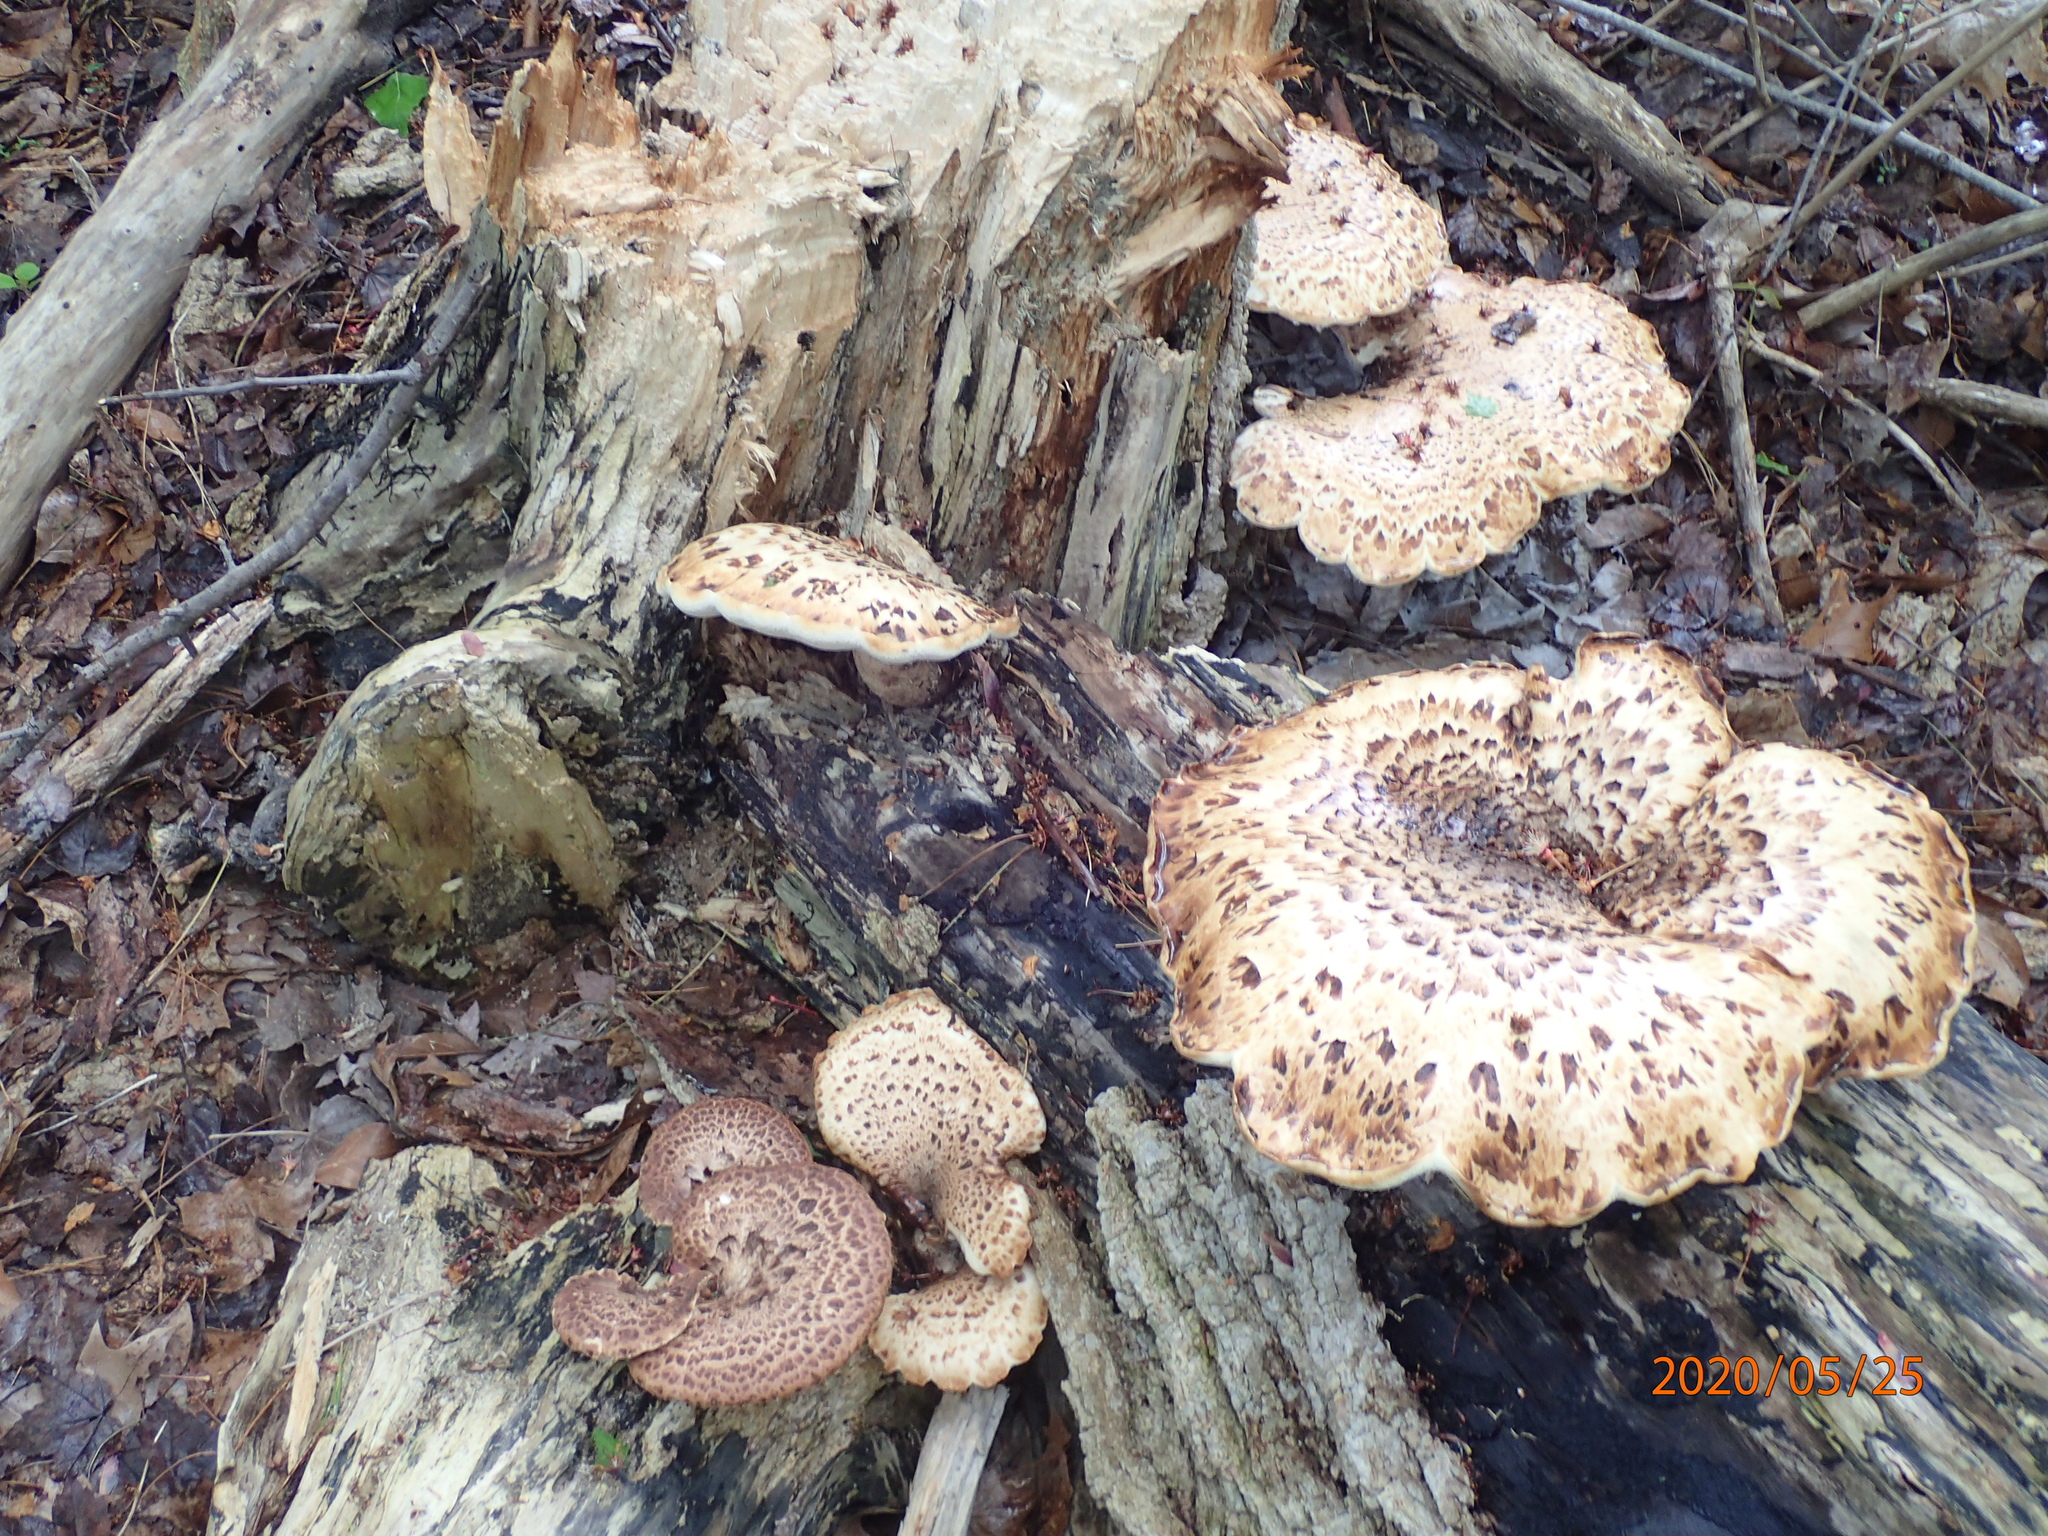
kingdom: Fungi
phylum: Basidiomycota
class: Agaricomycetes
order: Polyporales
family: Polyporaceae
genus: Cerioporus
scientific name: Cerioporus squamosus
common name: Dryad's saddle
